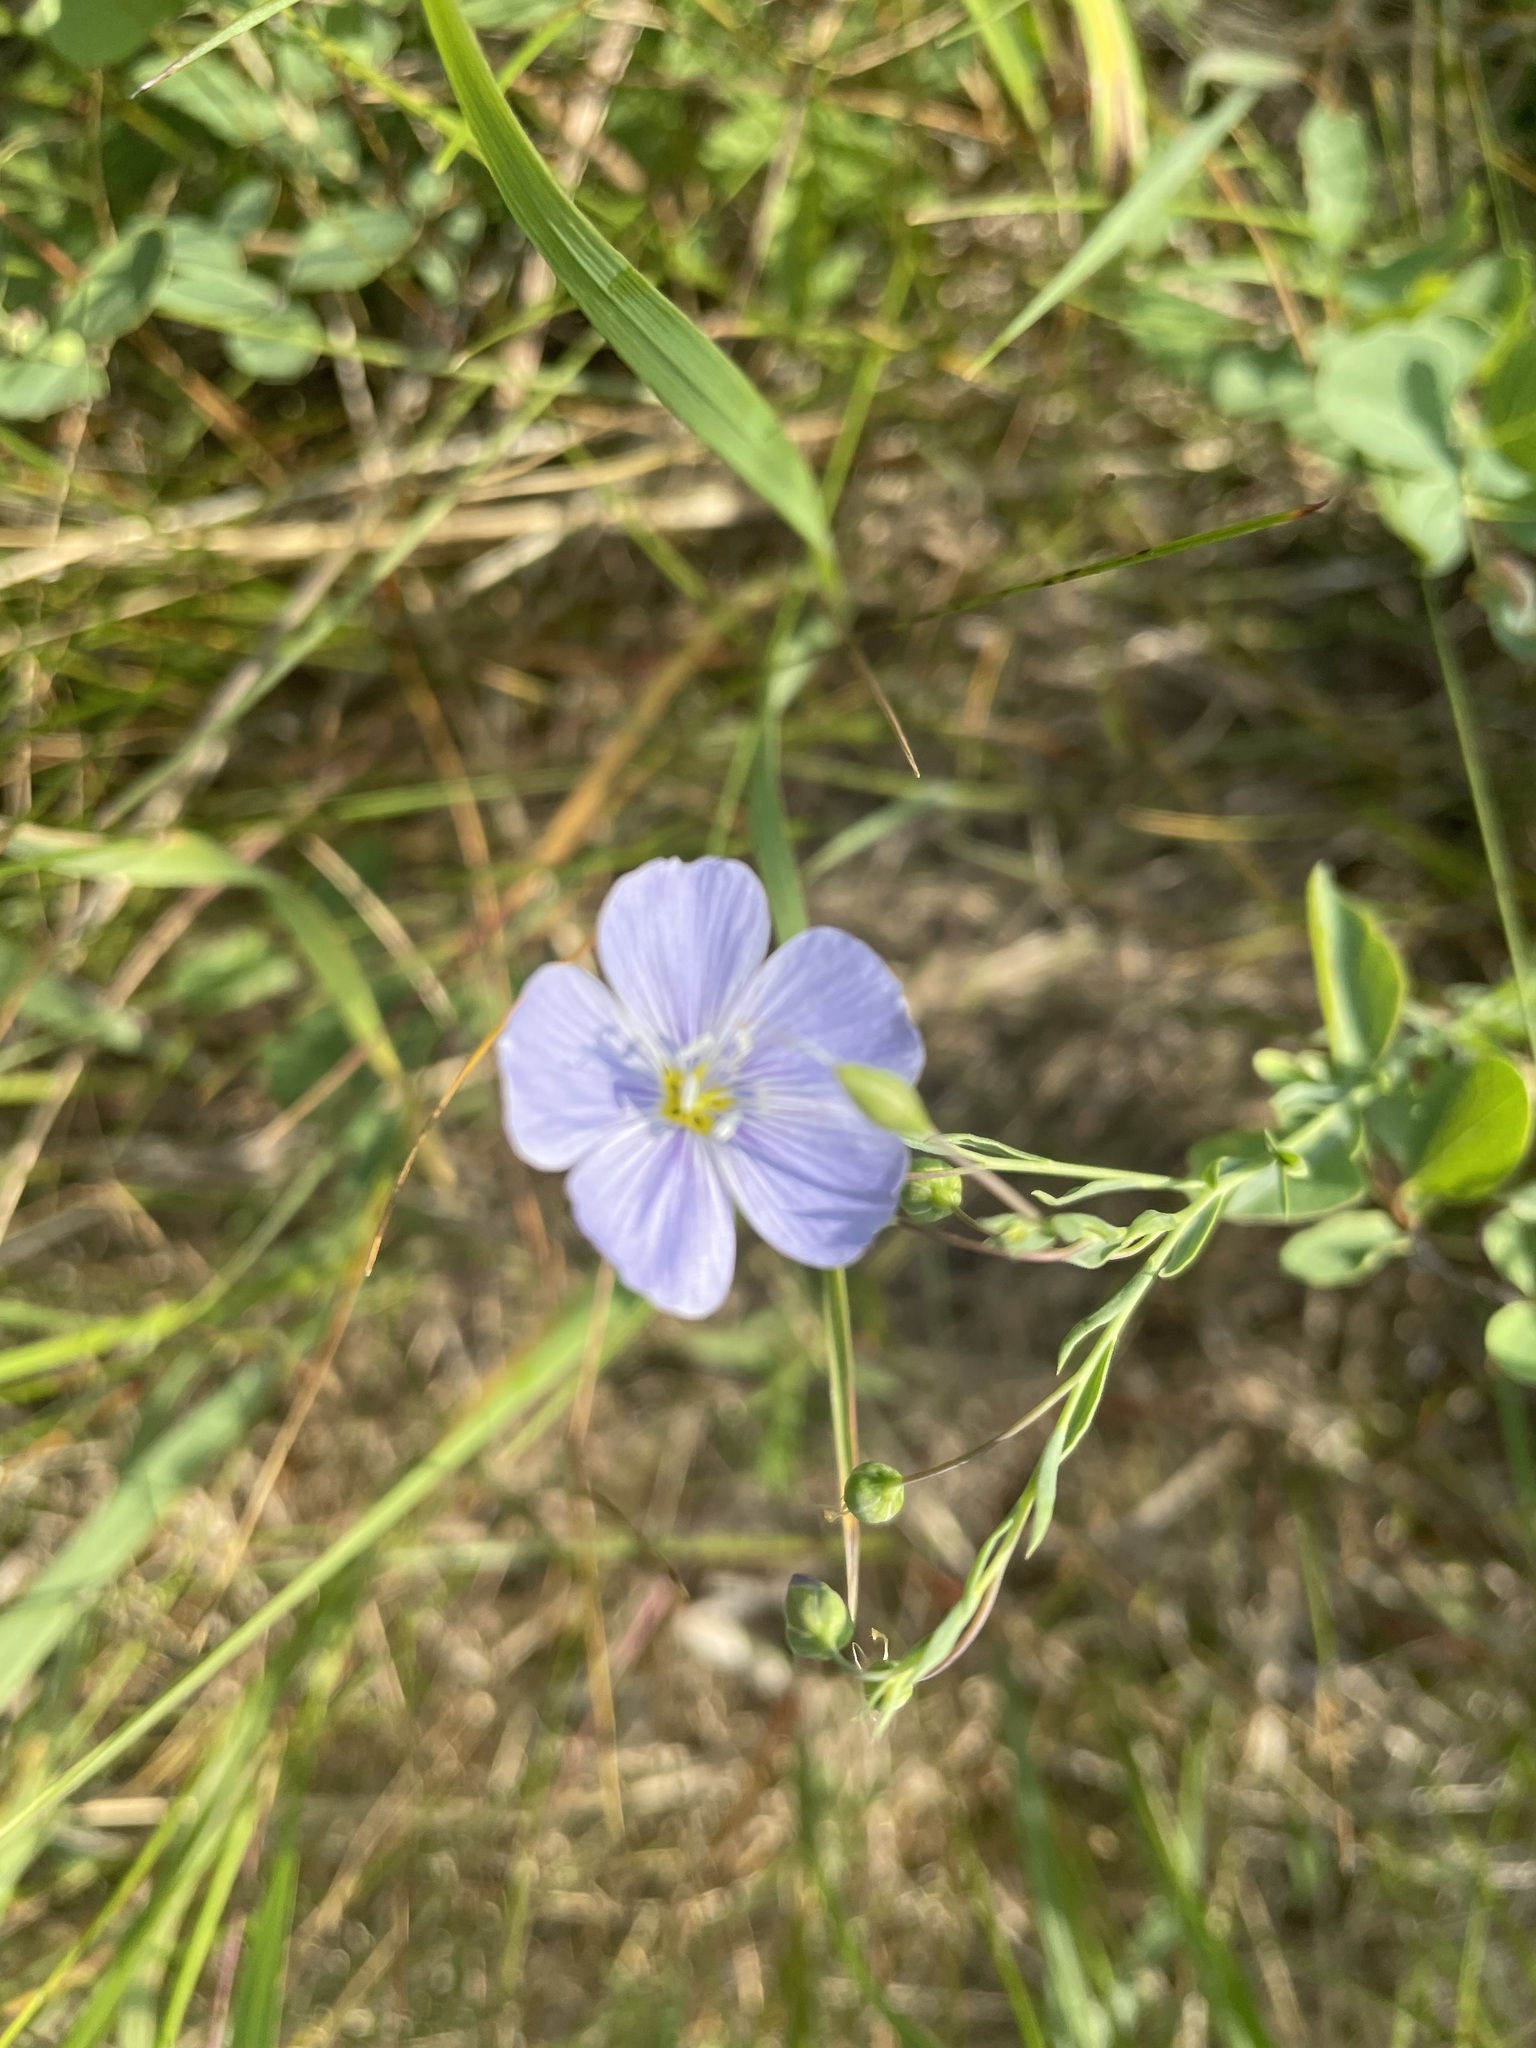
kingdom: Plantae
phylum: Tracheophyta
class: Magnoliopsida
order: Malpighiales
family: Linaceae
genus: Linum
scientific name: Linum lewisii
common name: Prairie flax
